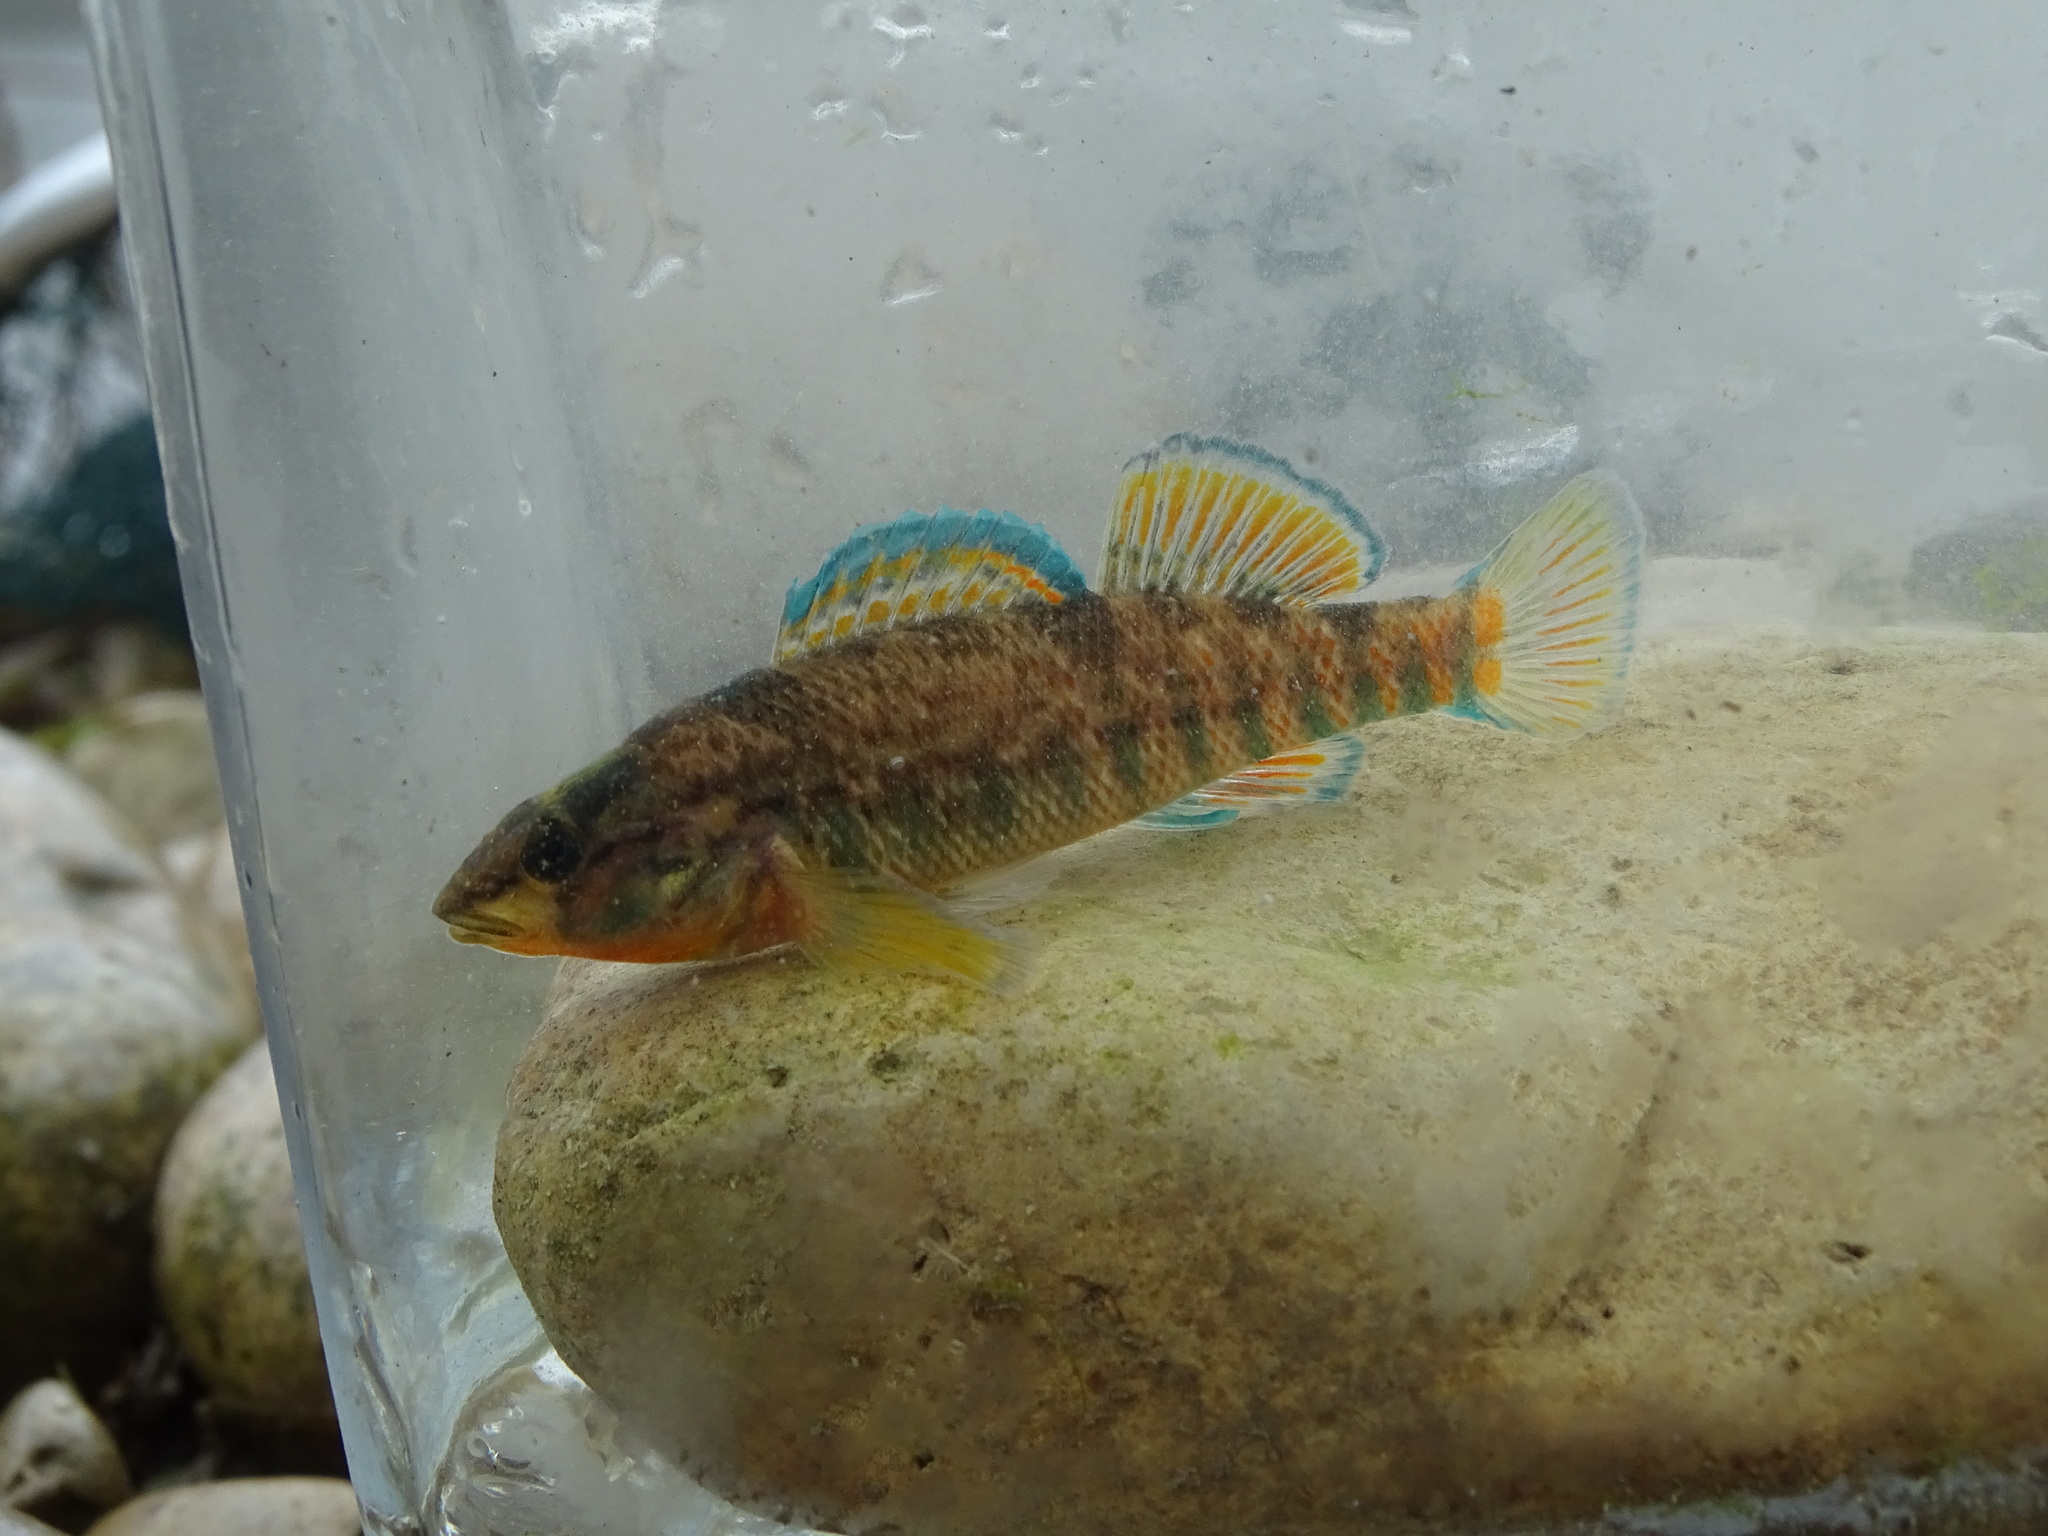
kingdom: Animalia
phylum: Chordata
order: Perciformes
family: Percidae
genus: Etheostoma
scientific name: Etheostoma caeruleum
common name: Rainbow darter
